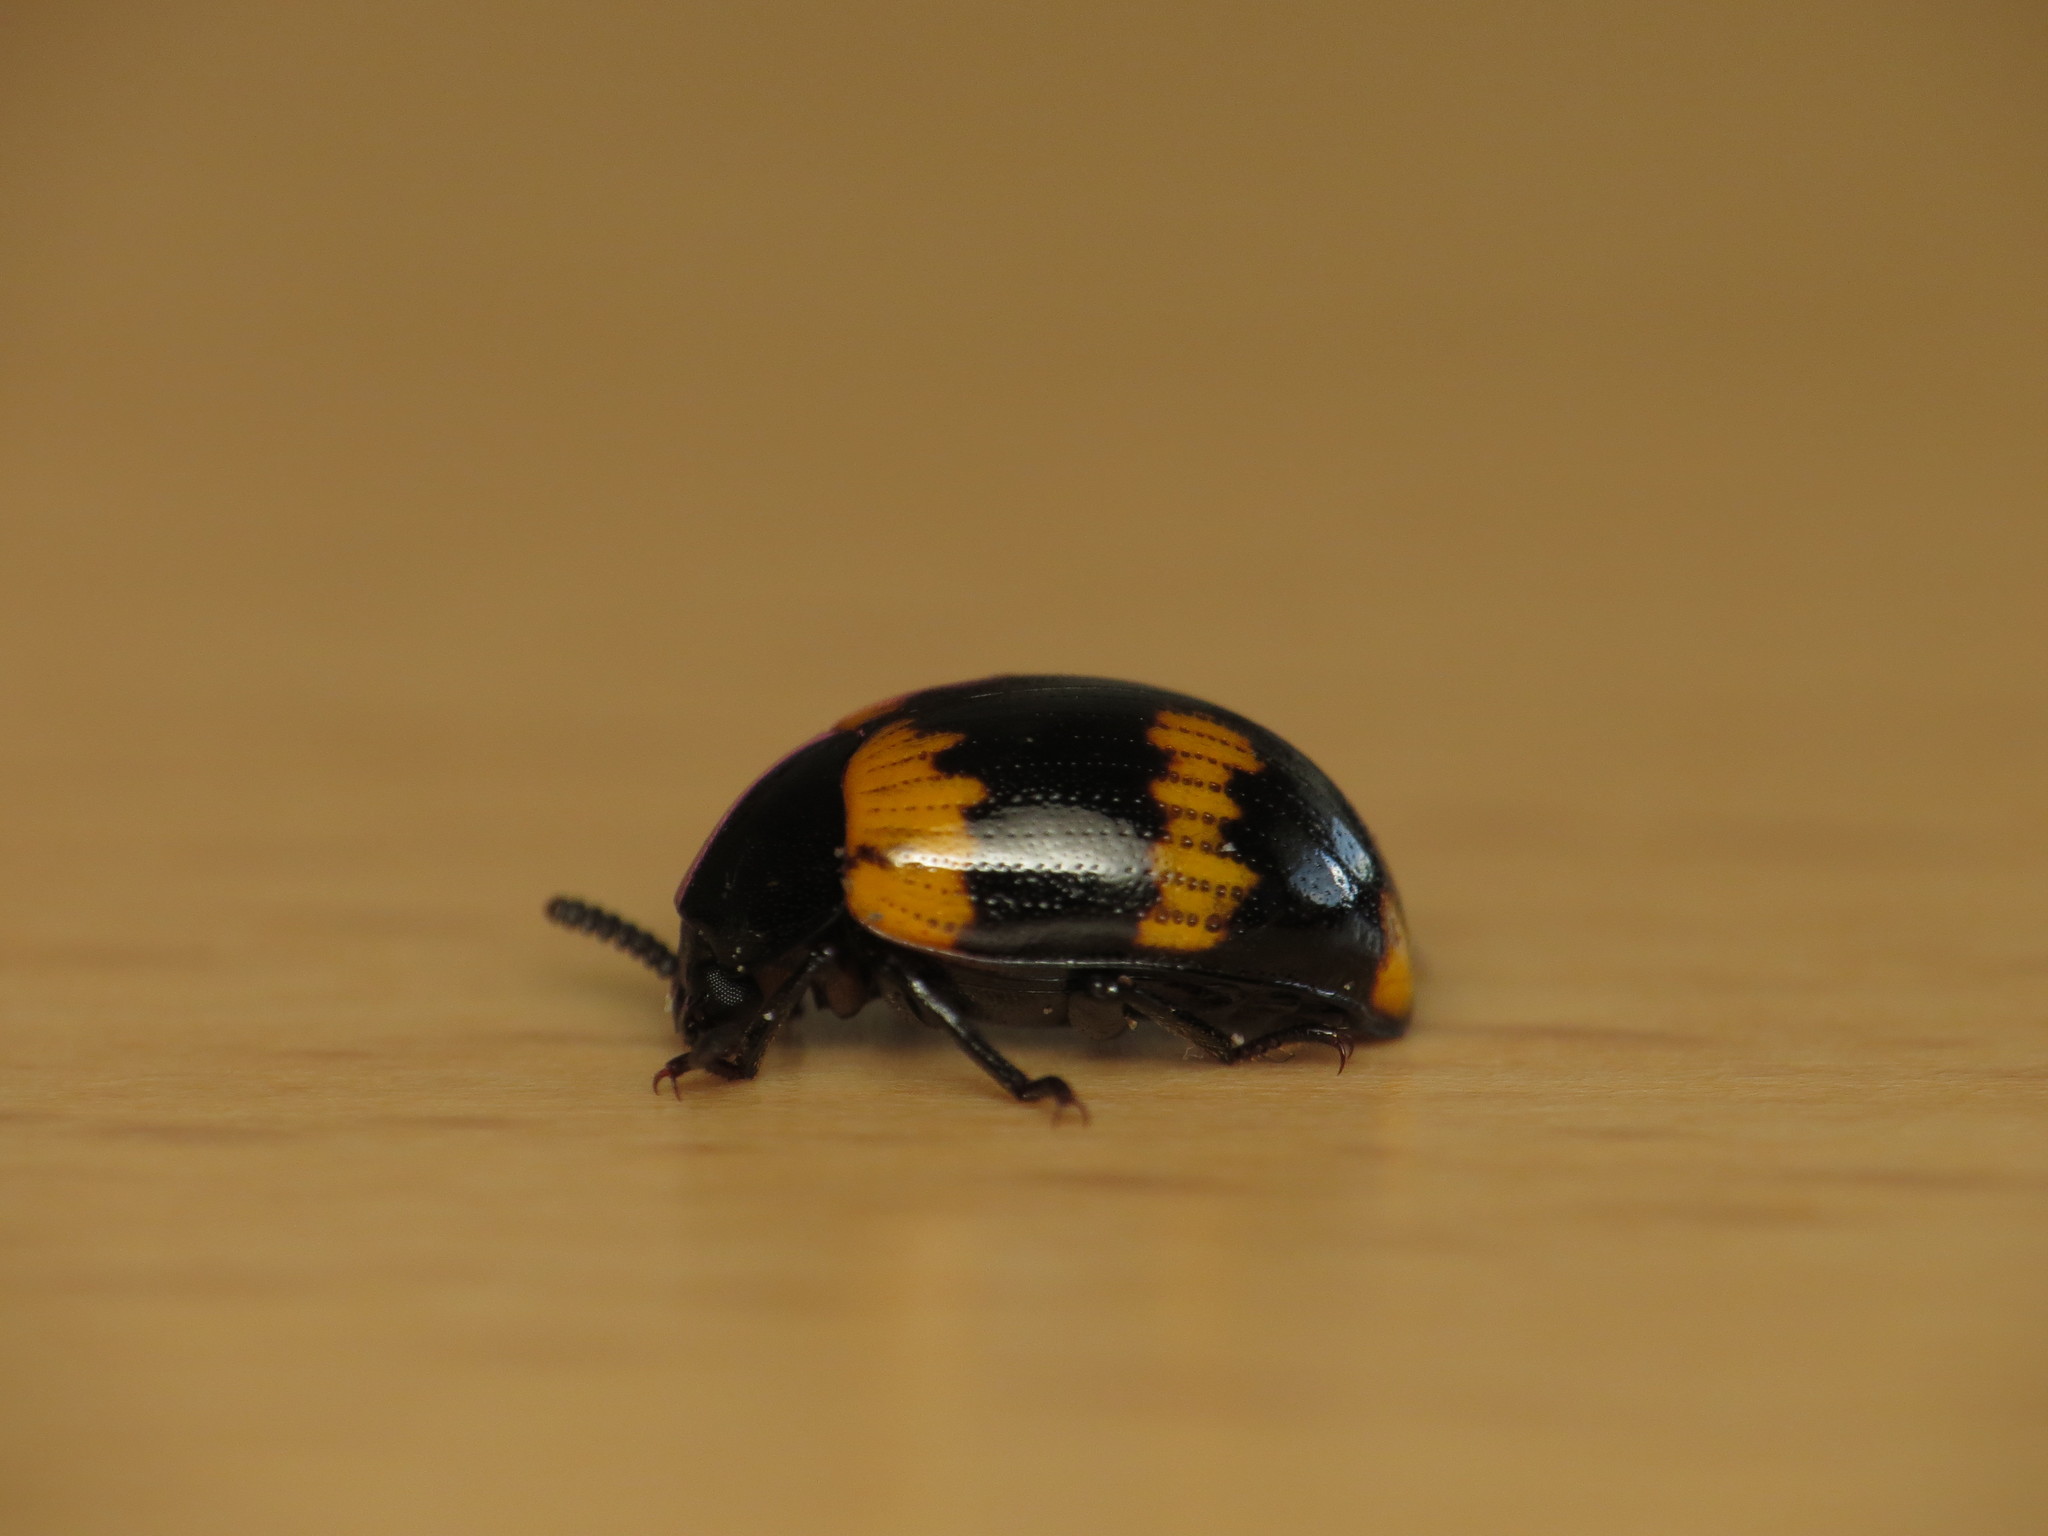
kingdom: Animalia
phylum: Arthropoda
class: Insecta
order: Coleoptera
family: Tenebrionidae
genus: Diaperis
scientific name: Diaperis boleti
